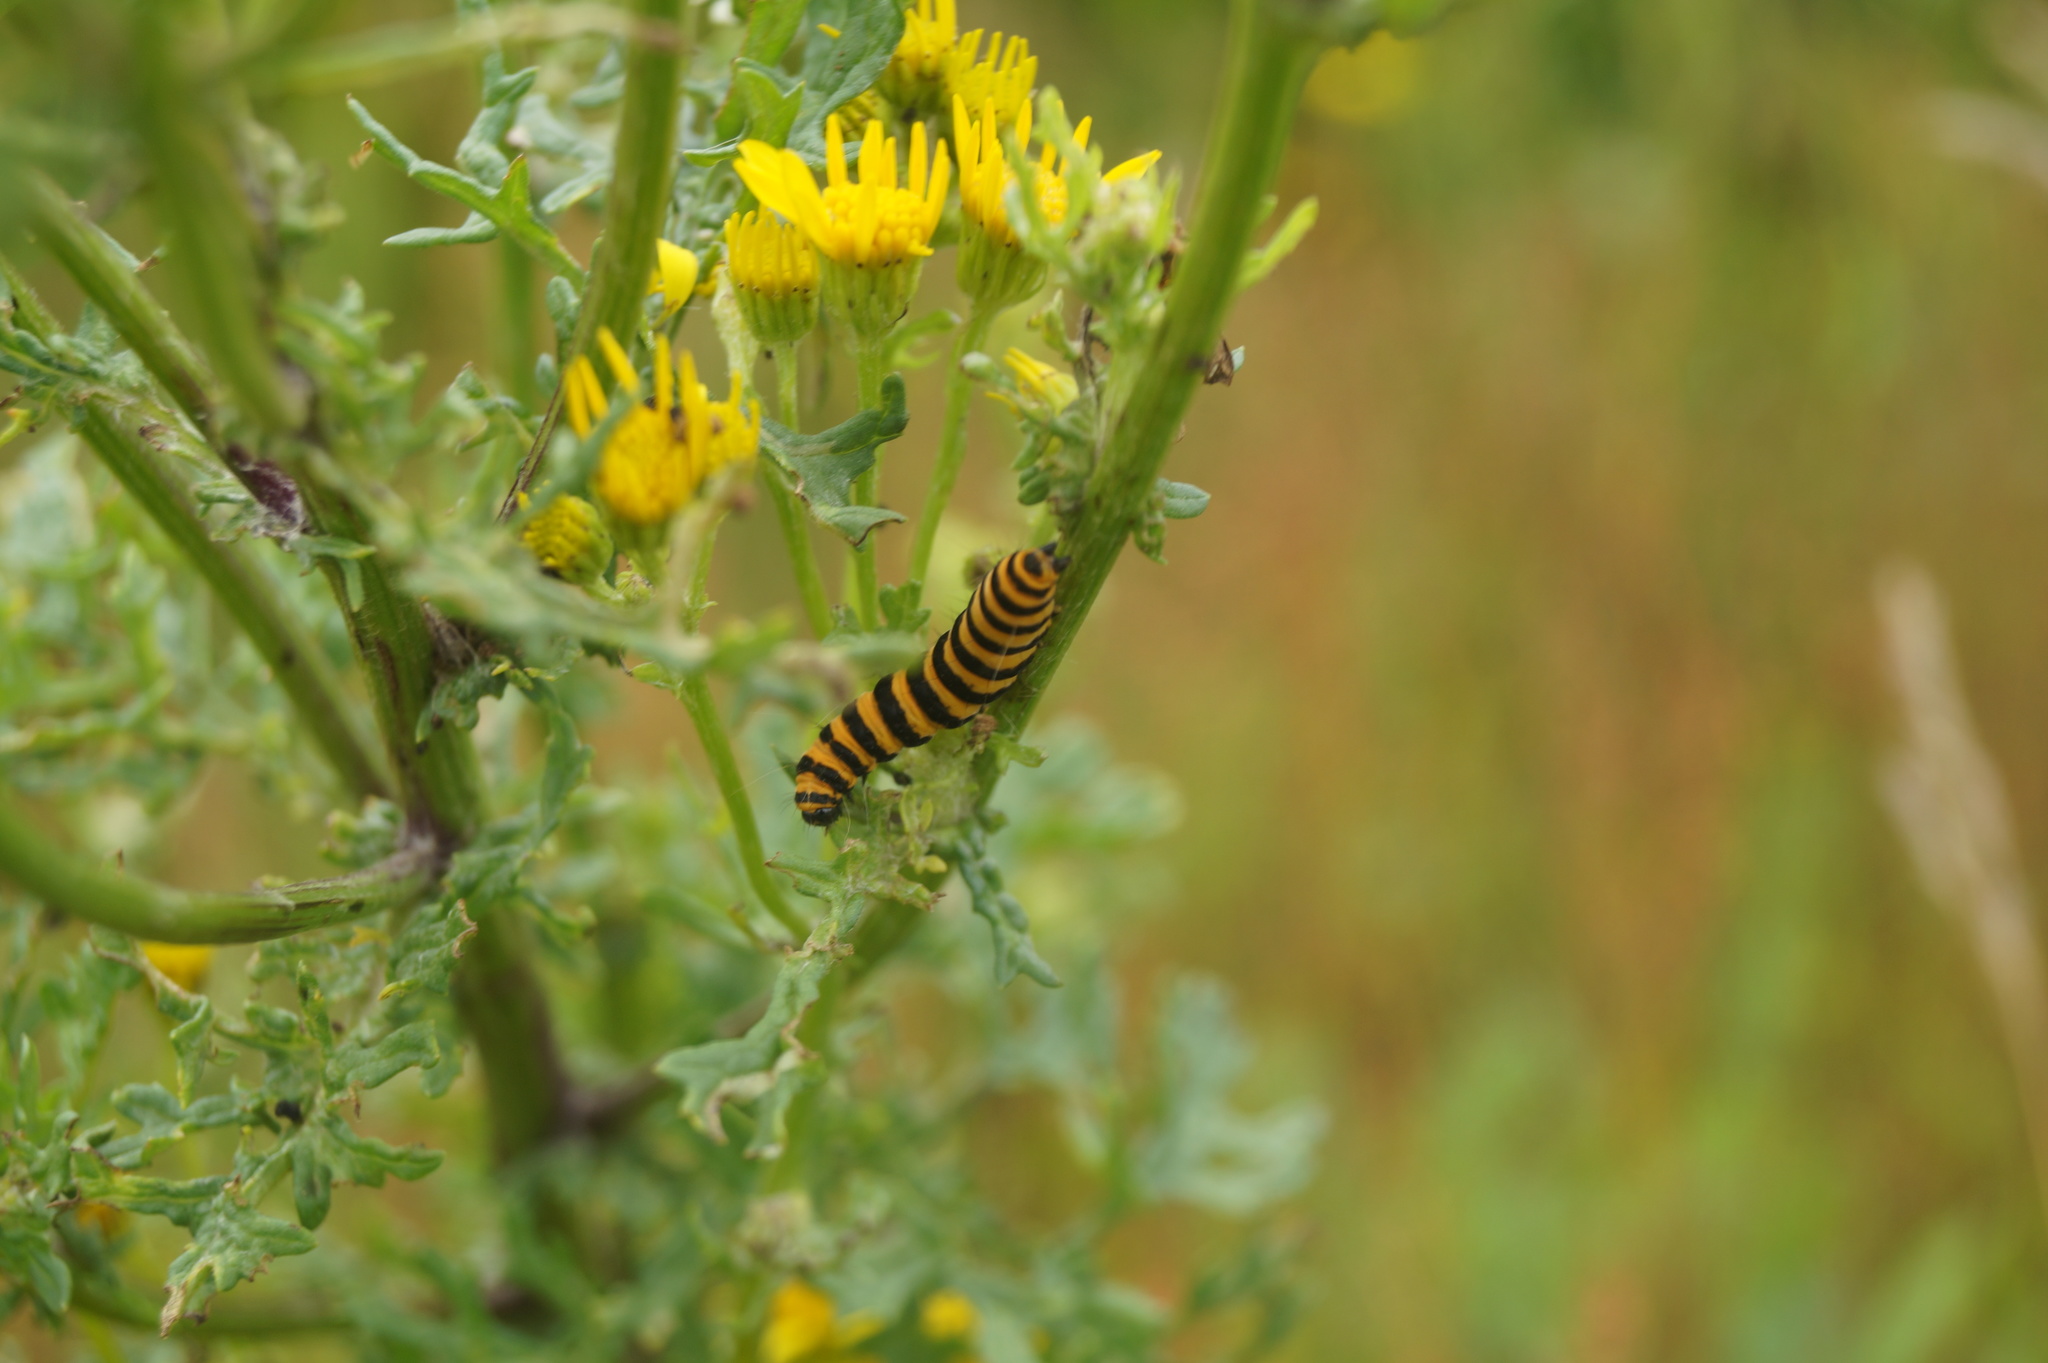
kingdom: Animalia
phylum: Arthropoda
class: Insecta
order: Lepidoptera
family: Erebidae
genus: Tyria
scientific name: Tyria jacobaeae
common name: Cinnabar
